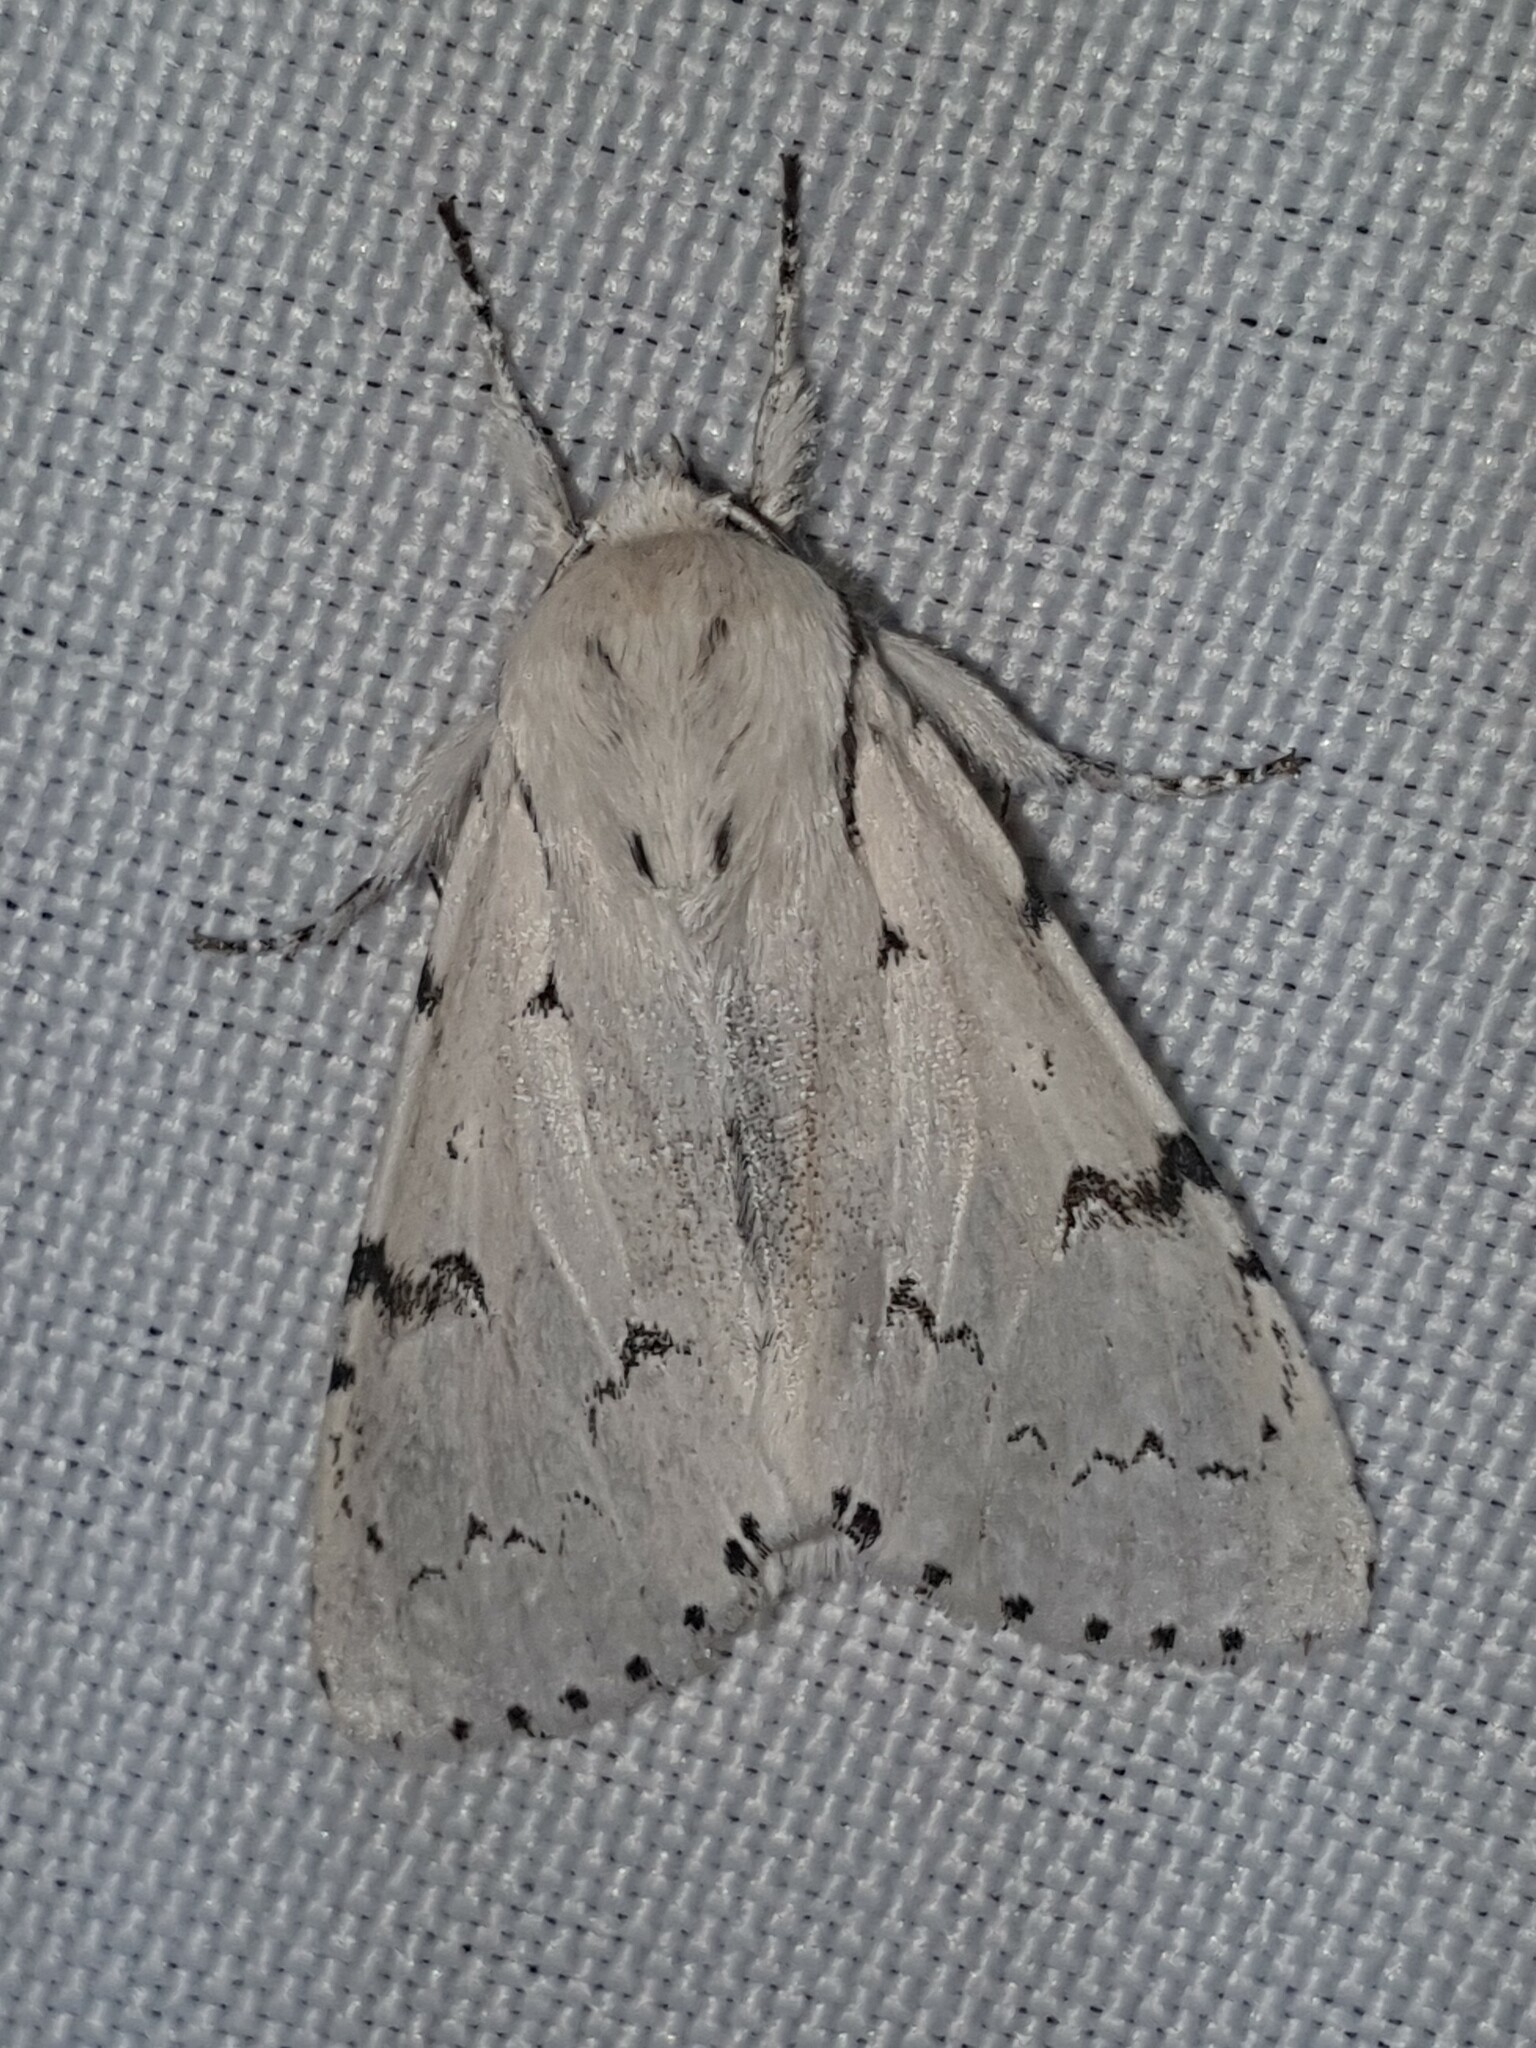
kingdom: Animalia
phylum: Arthropoda
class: Insecta
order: Lepidoptera
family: Noctuidae
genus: Acronicta
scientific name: Acronicta leporina
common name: Miller
